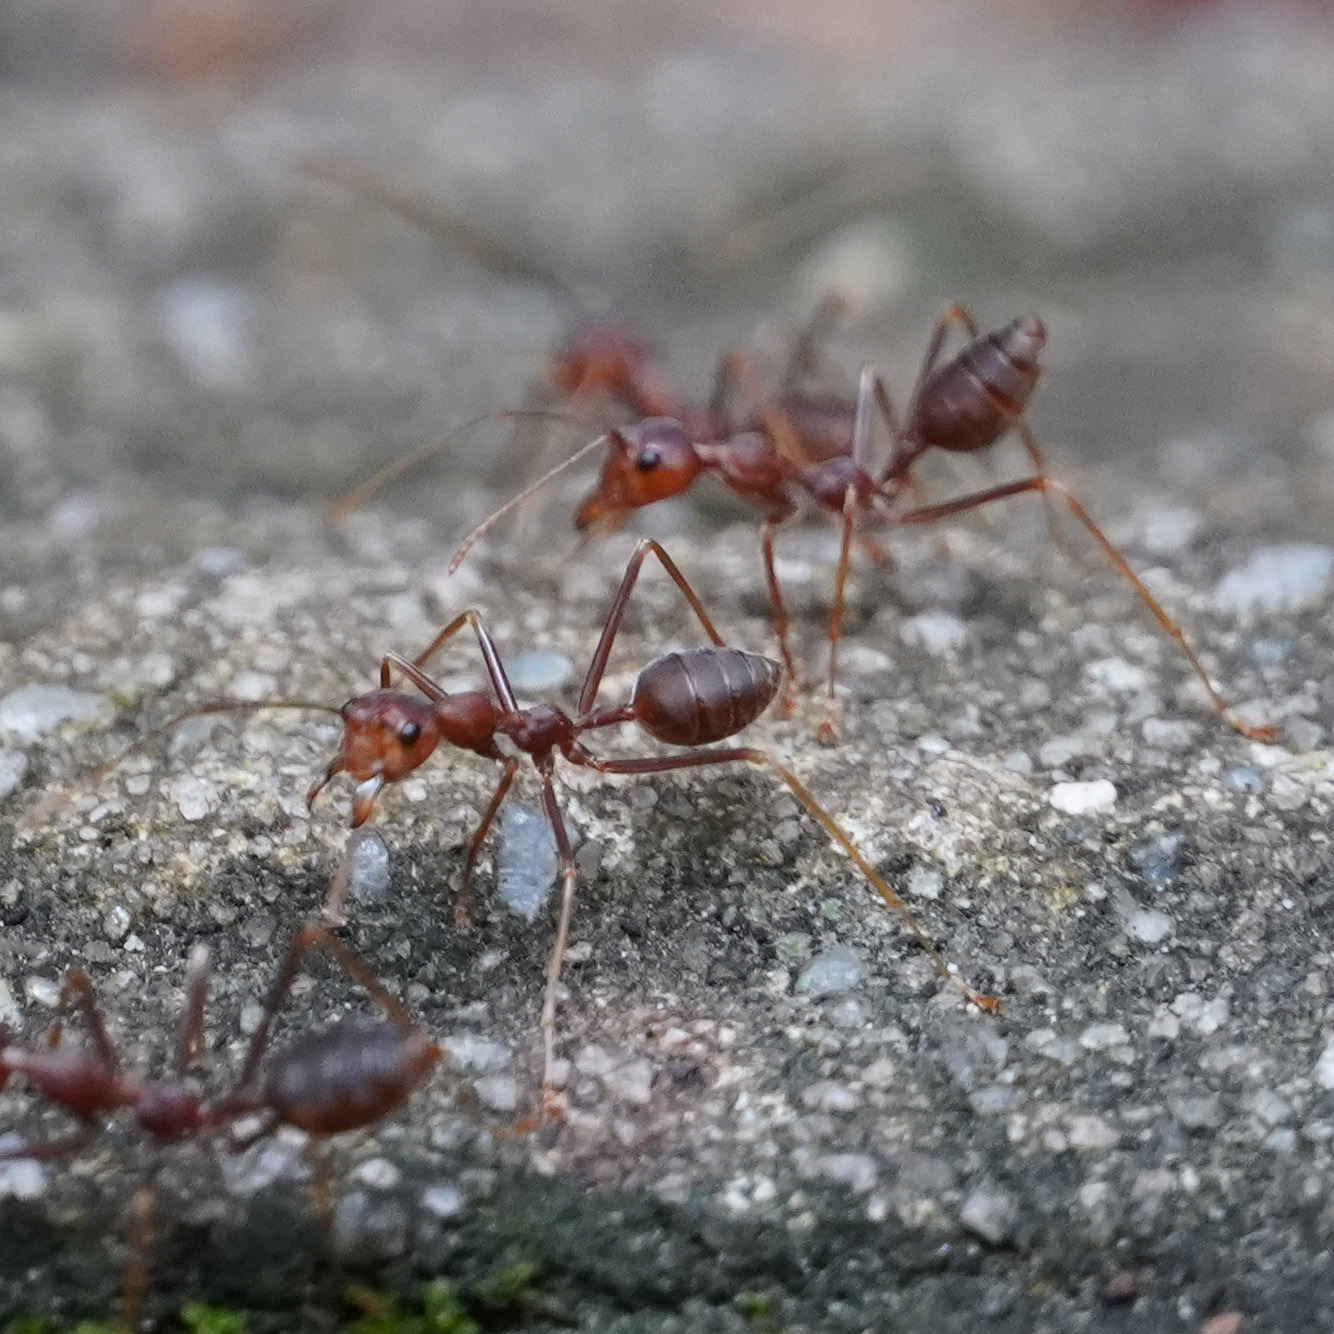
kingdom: Animalia
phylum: Arthropoda
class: Insecta
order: Hymenoptera
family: Formicidae
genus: Oecophylla
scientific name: Oecophylla smaragdina
